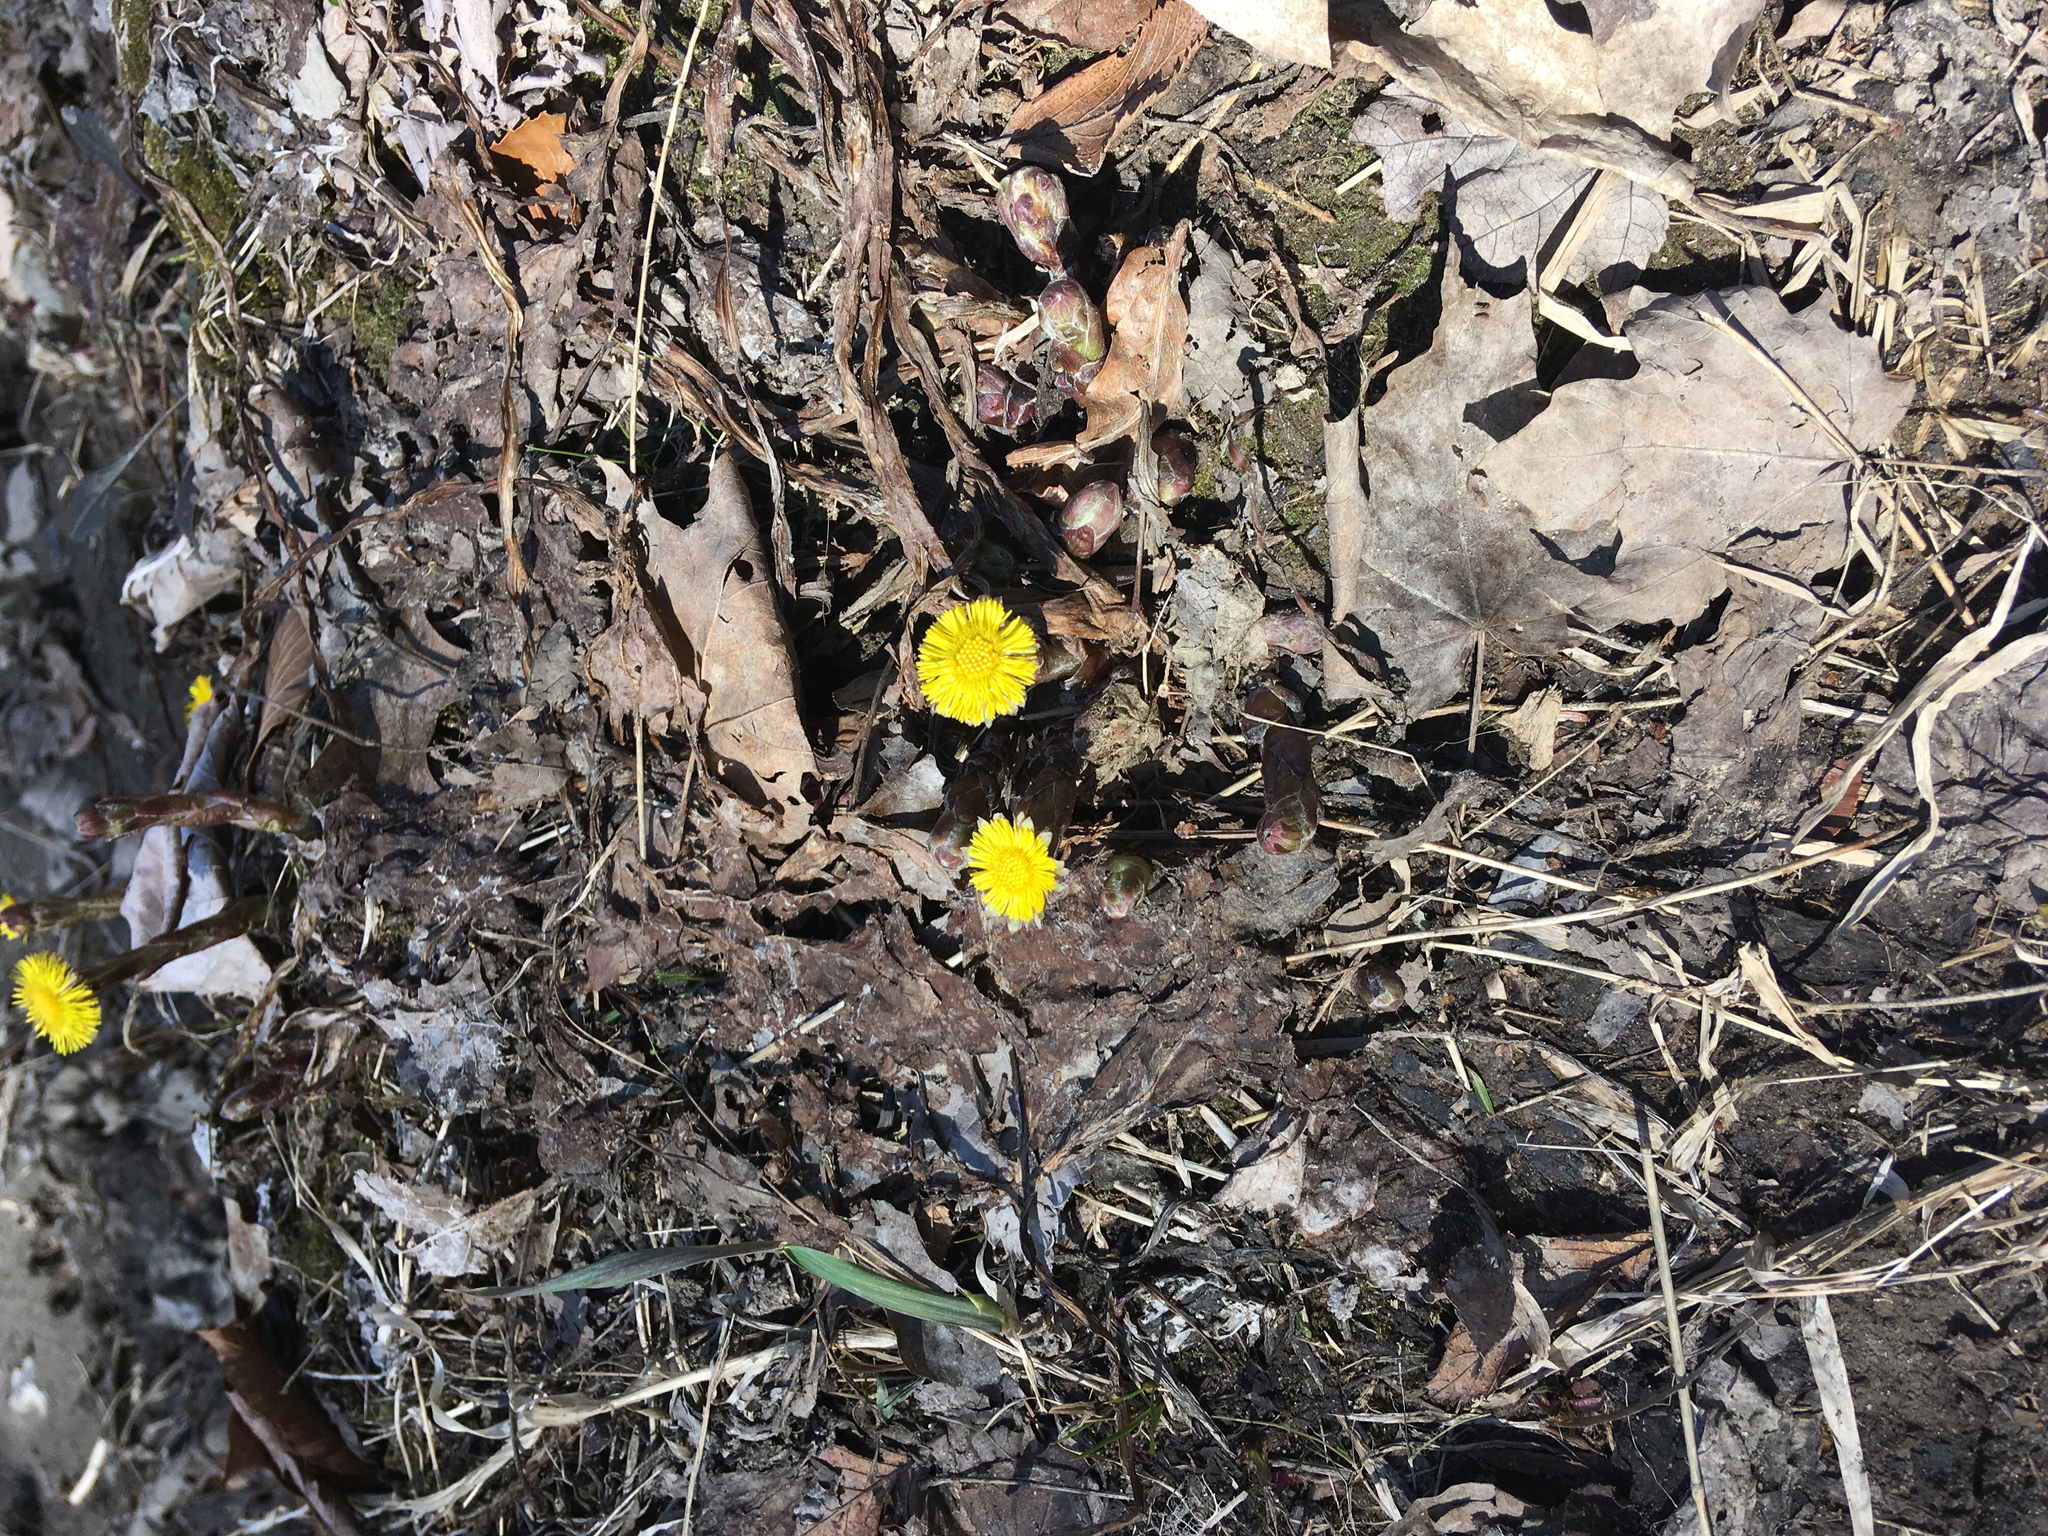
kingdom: Plantae
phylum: Tracheophyta
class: Magnoliopsida
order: Asterales
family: Asteraceae
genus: Tussilago
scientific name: Tussilago farfara
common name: Coltsfoot
